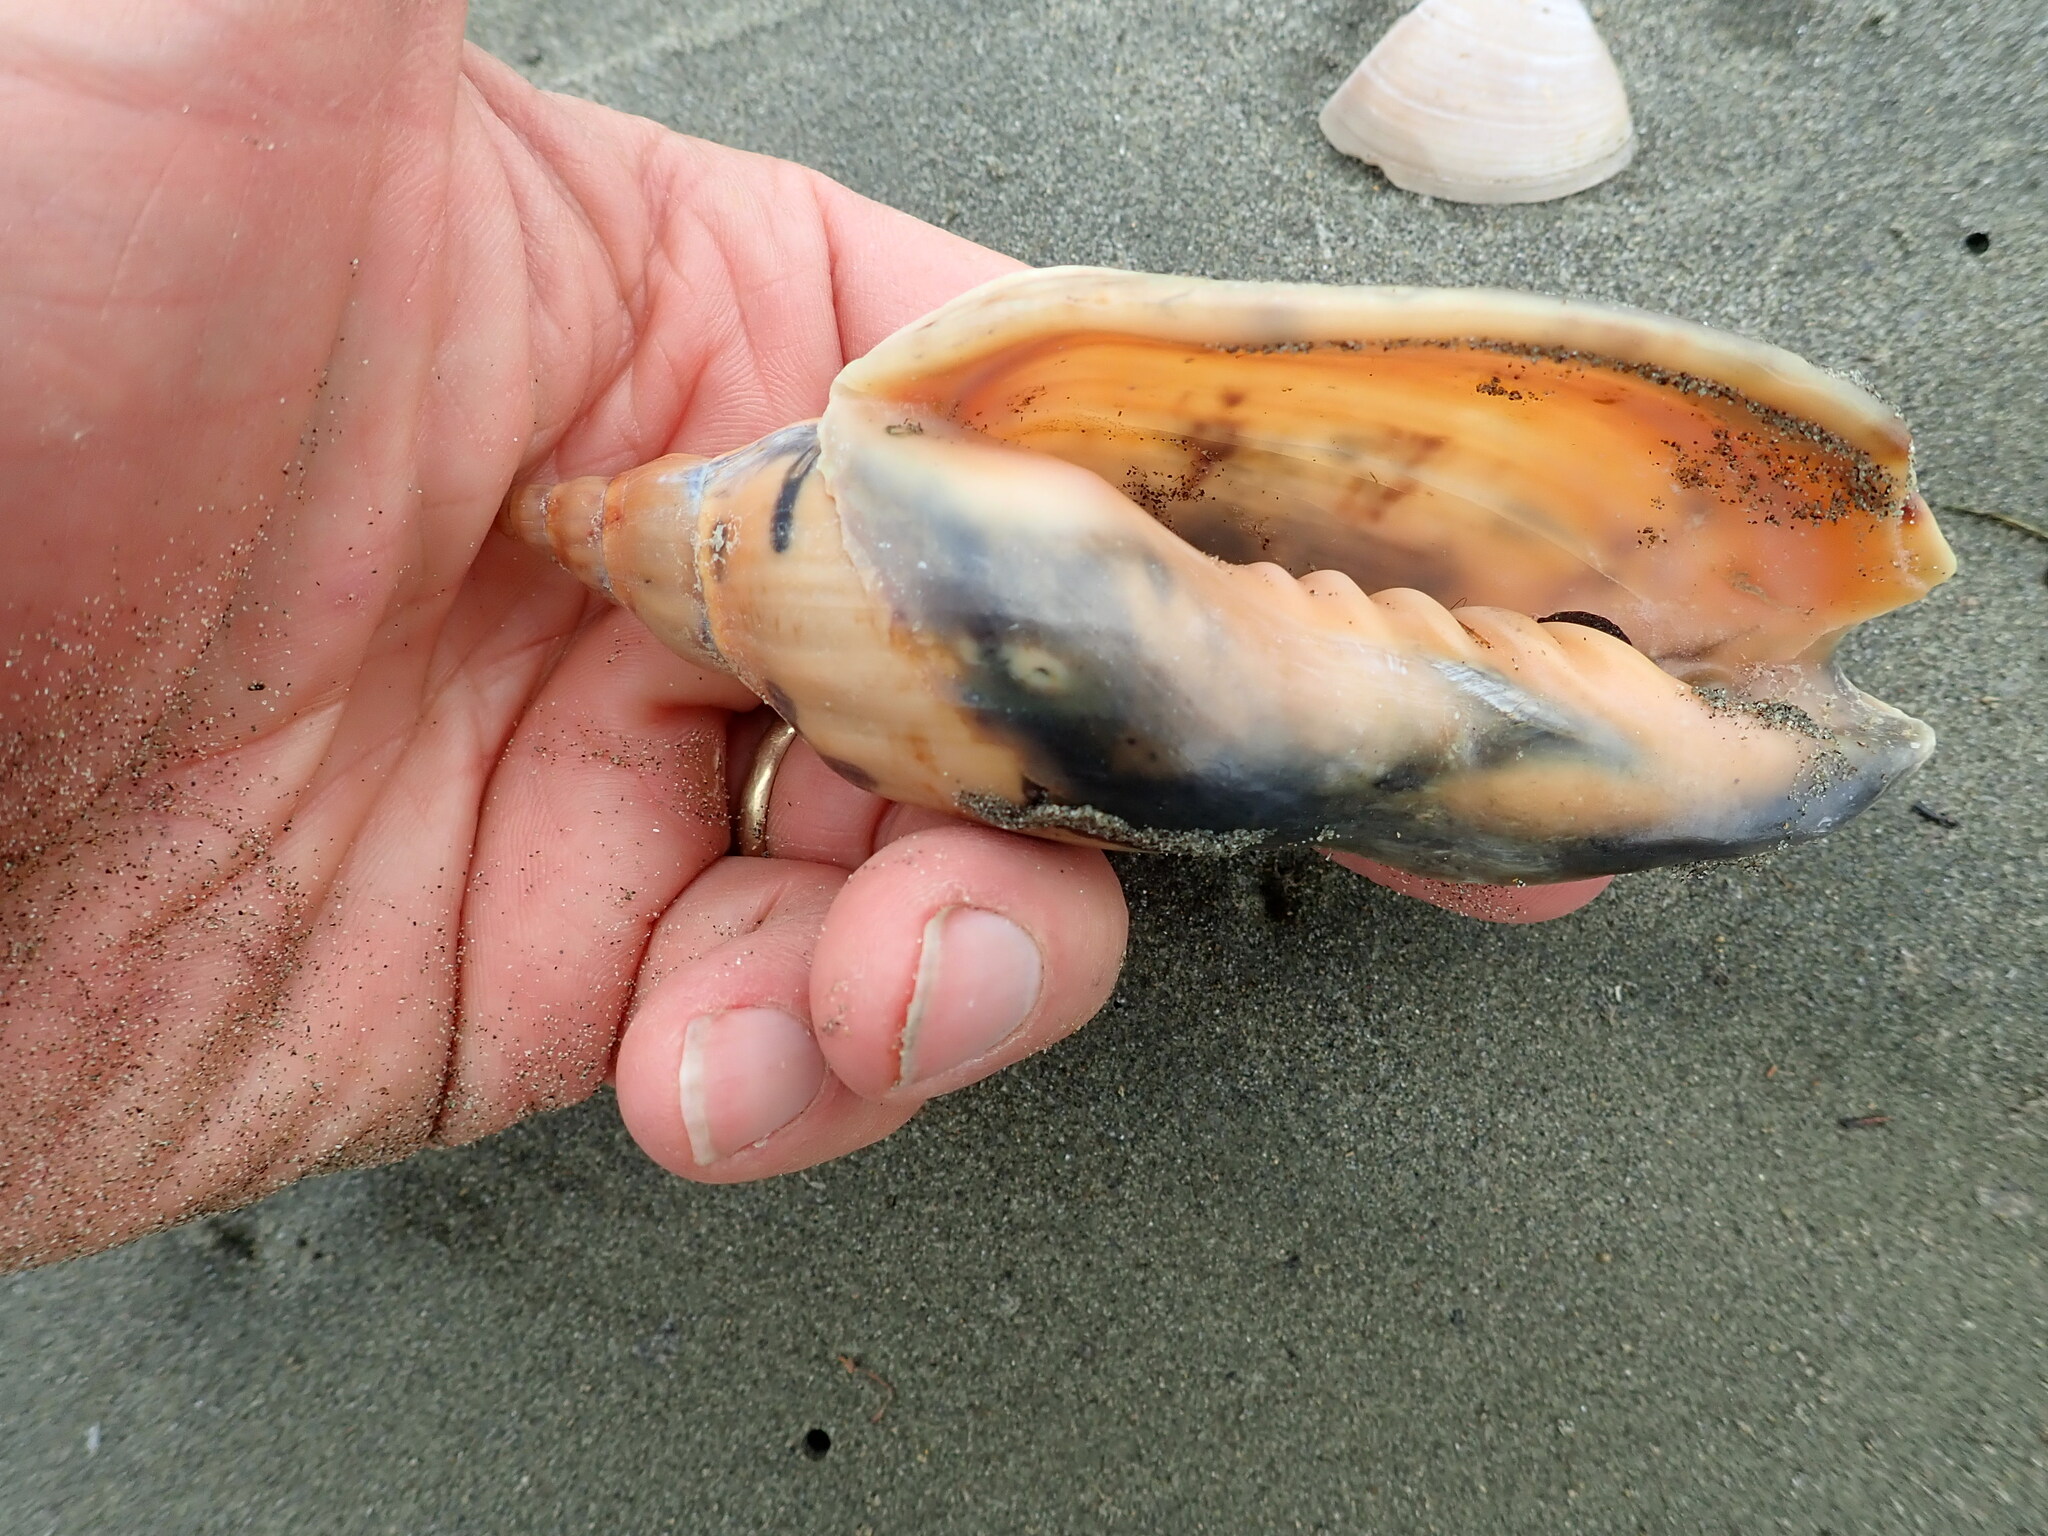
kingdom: Animalia
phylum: Mollusca
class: Gastropoda
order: Neogastropoda
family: Volutidae
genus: Alcithoe
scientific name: Alcithoe arabica
